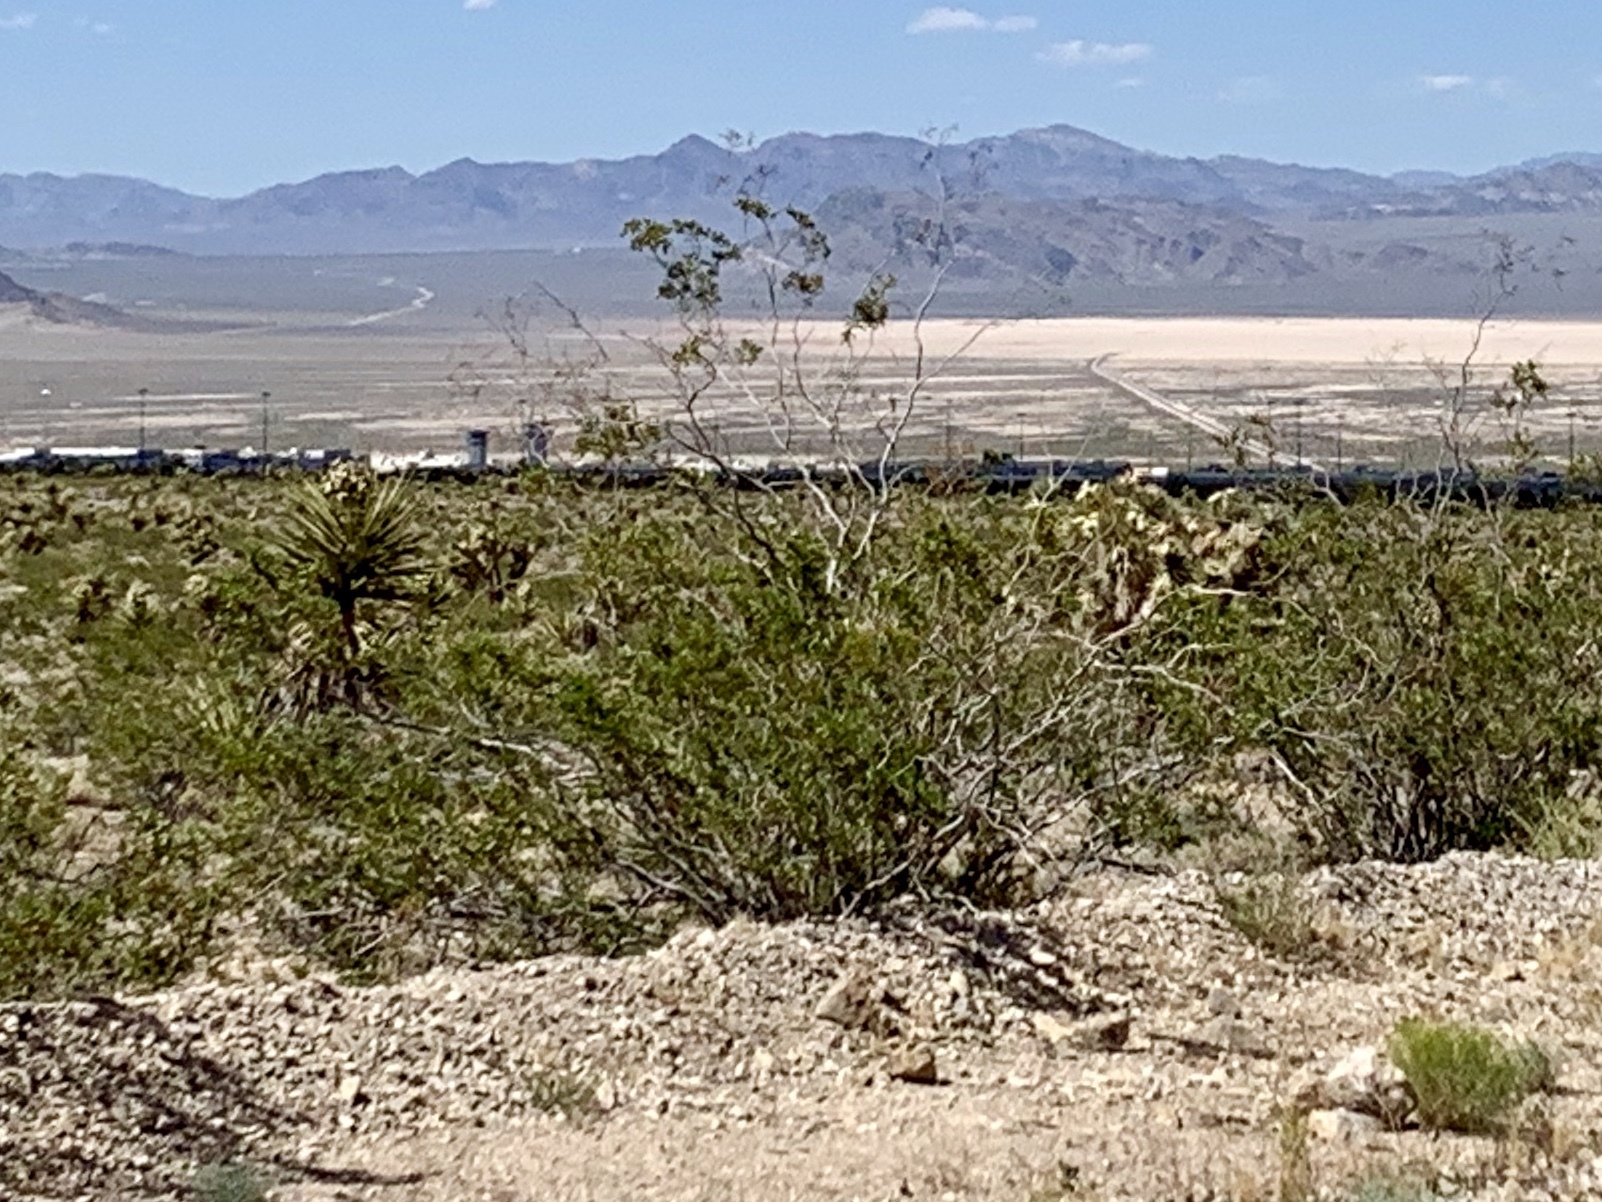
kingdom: Plantae
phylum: Tracheophyta
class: Magnoliopsida
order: Zygophyllales
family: Zygophyllaceae
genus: Larrea
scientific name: Larrea tridentata
